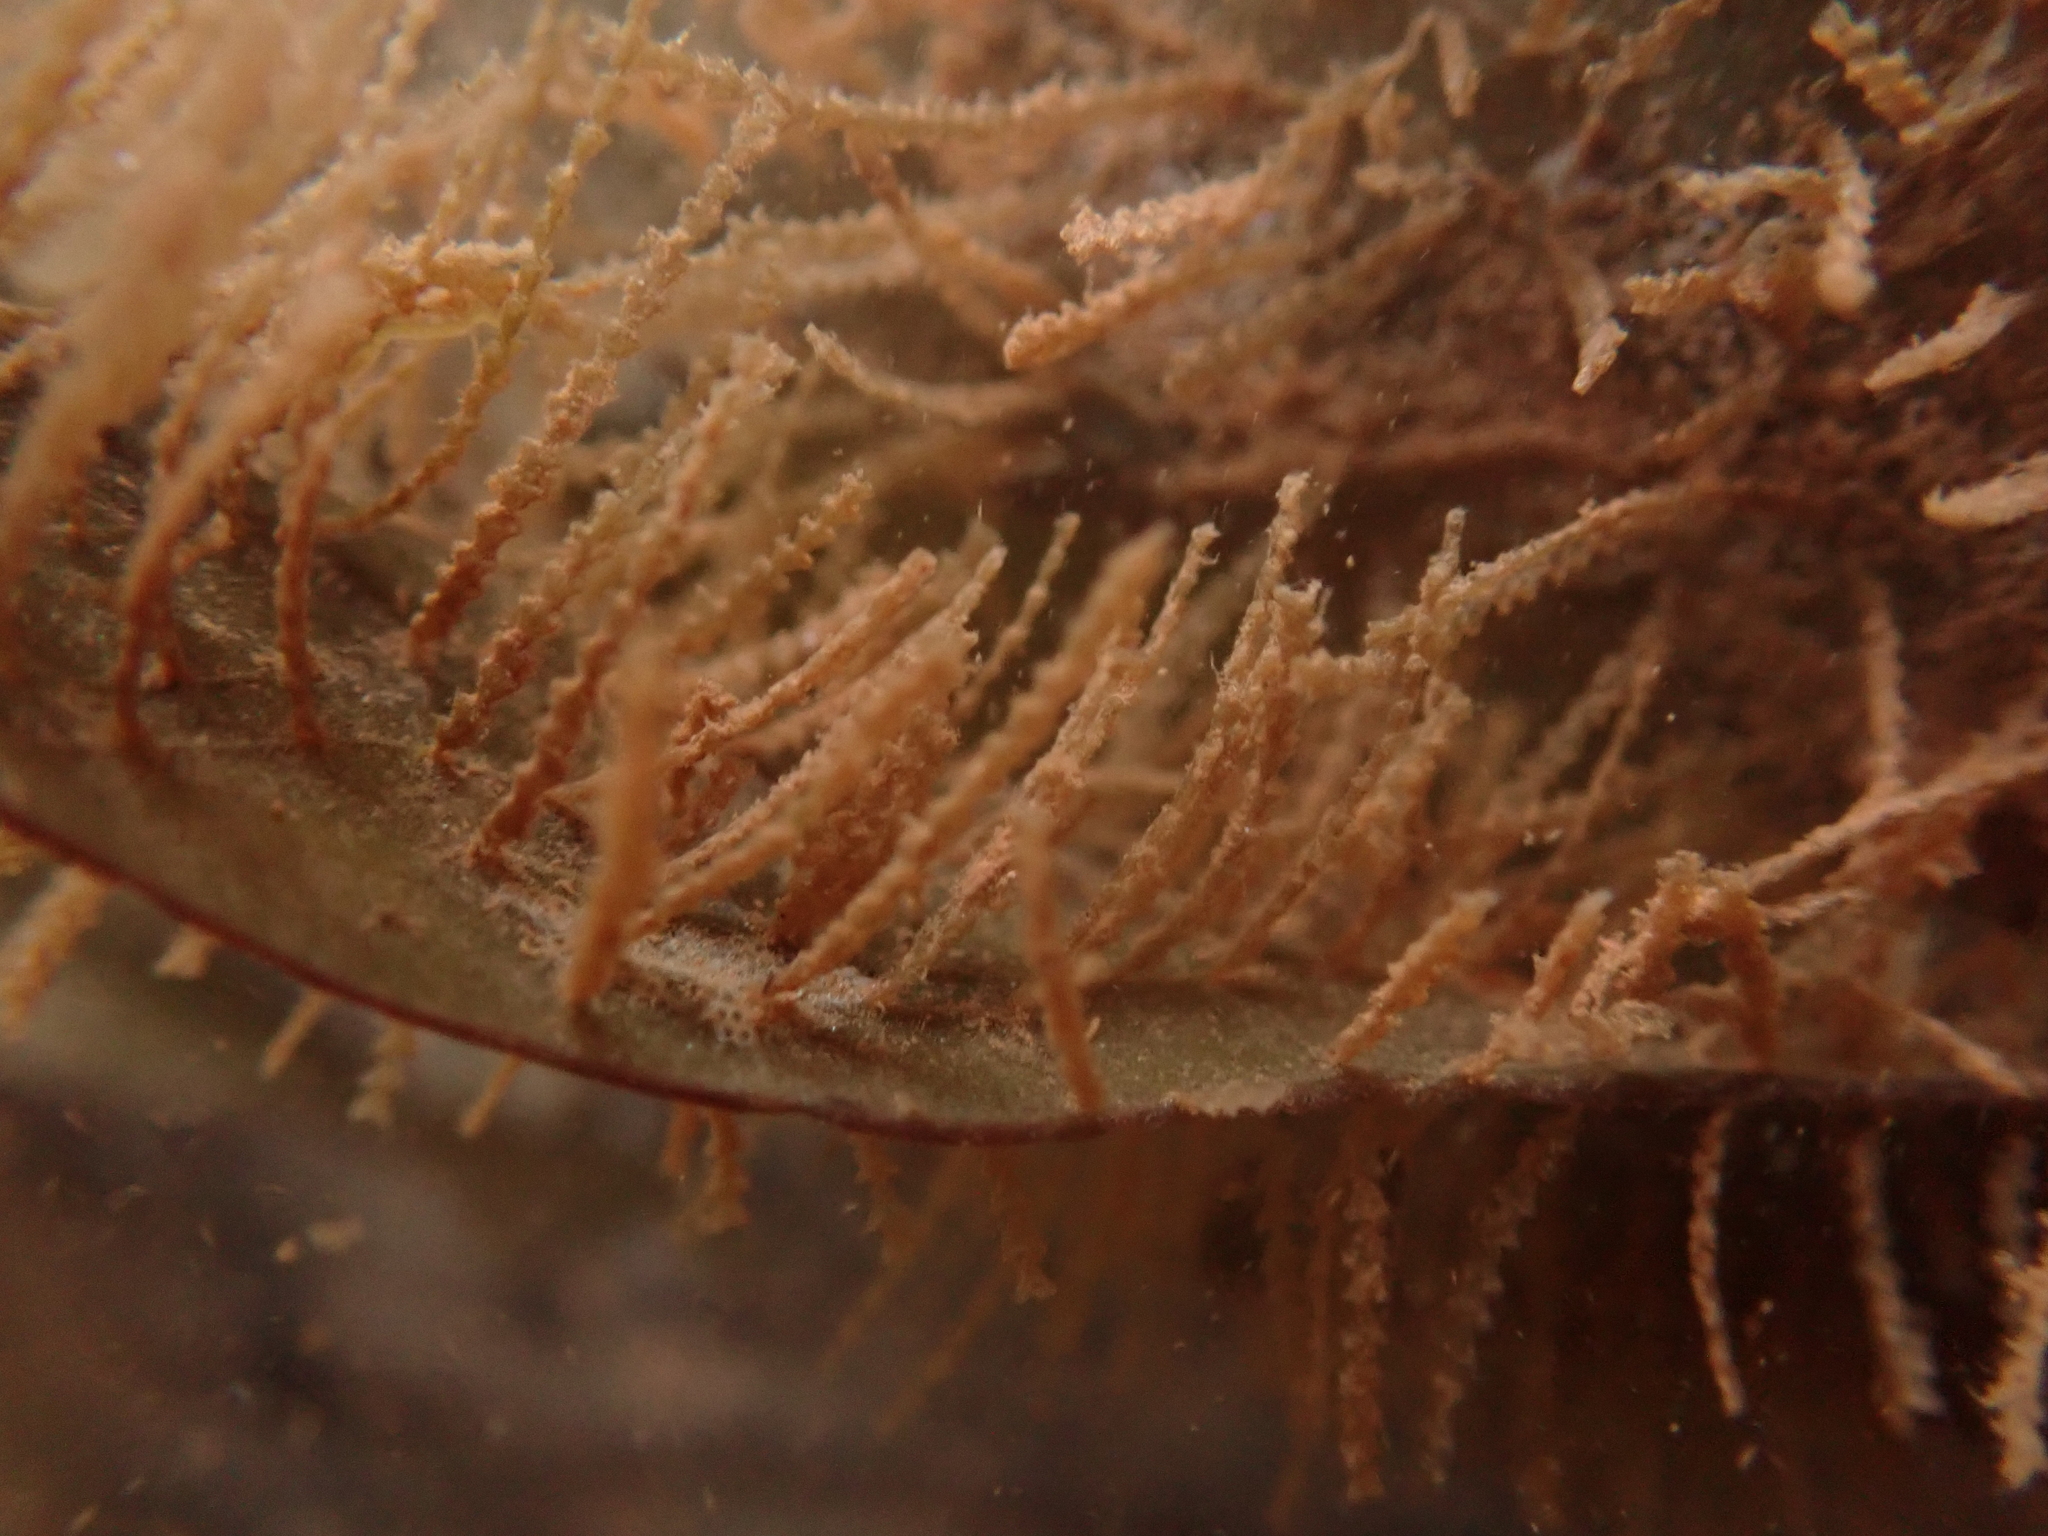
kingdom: Animalia
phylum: Cnidaria
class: Hydrozoa
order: Leptothecata
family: Sertulariidae
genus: Dynamena
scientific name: Dynamena pumila
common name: Sea oak
